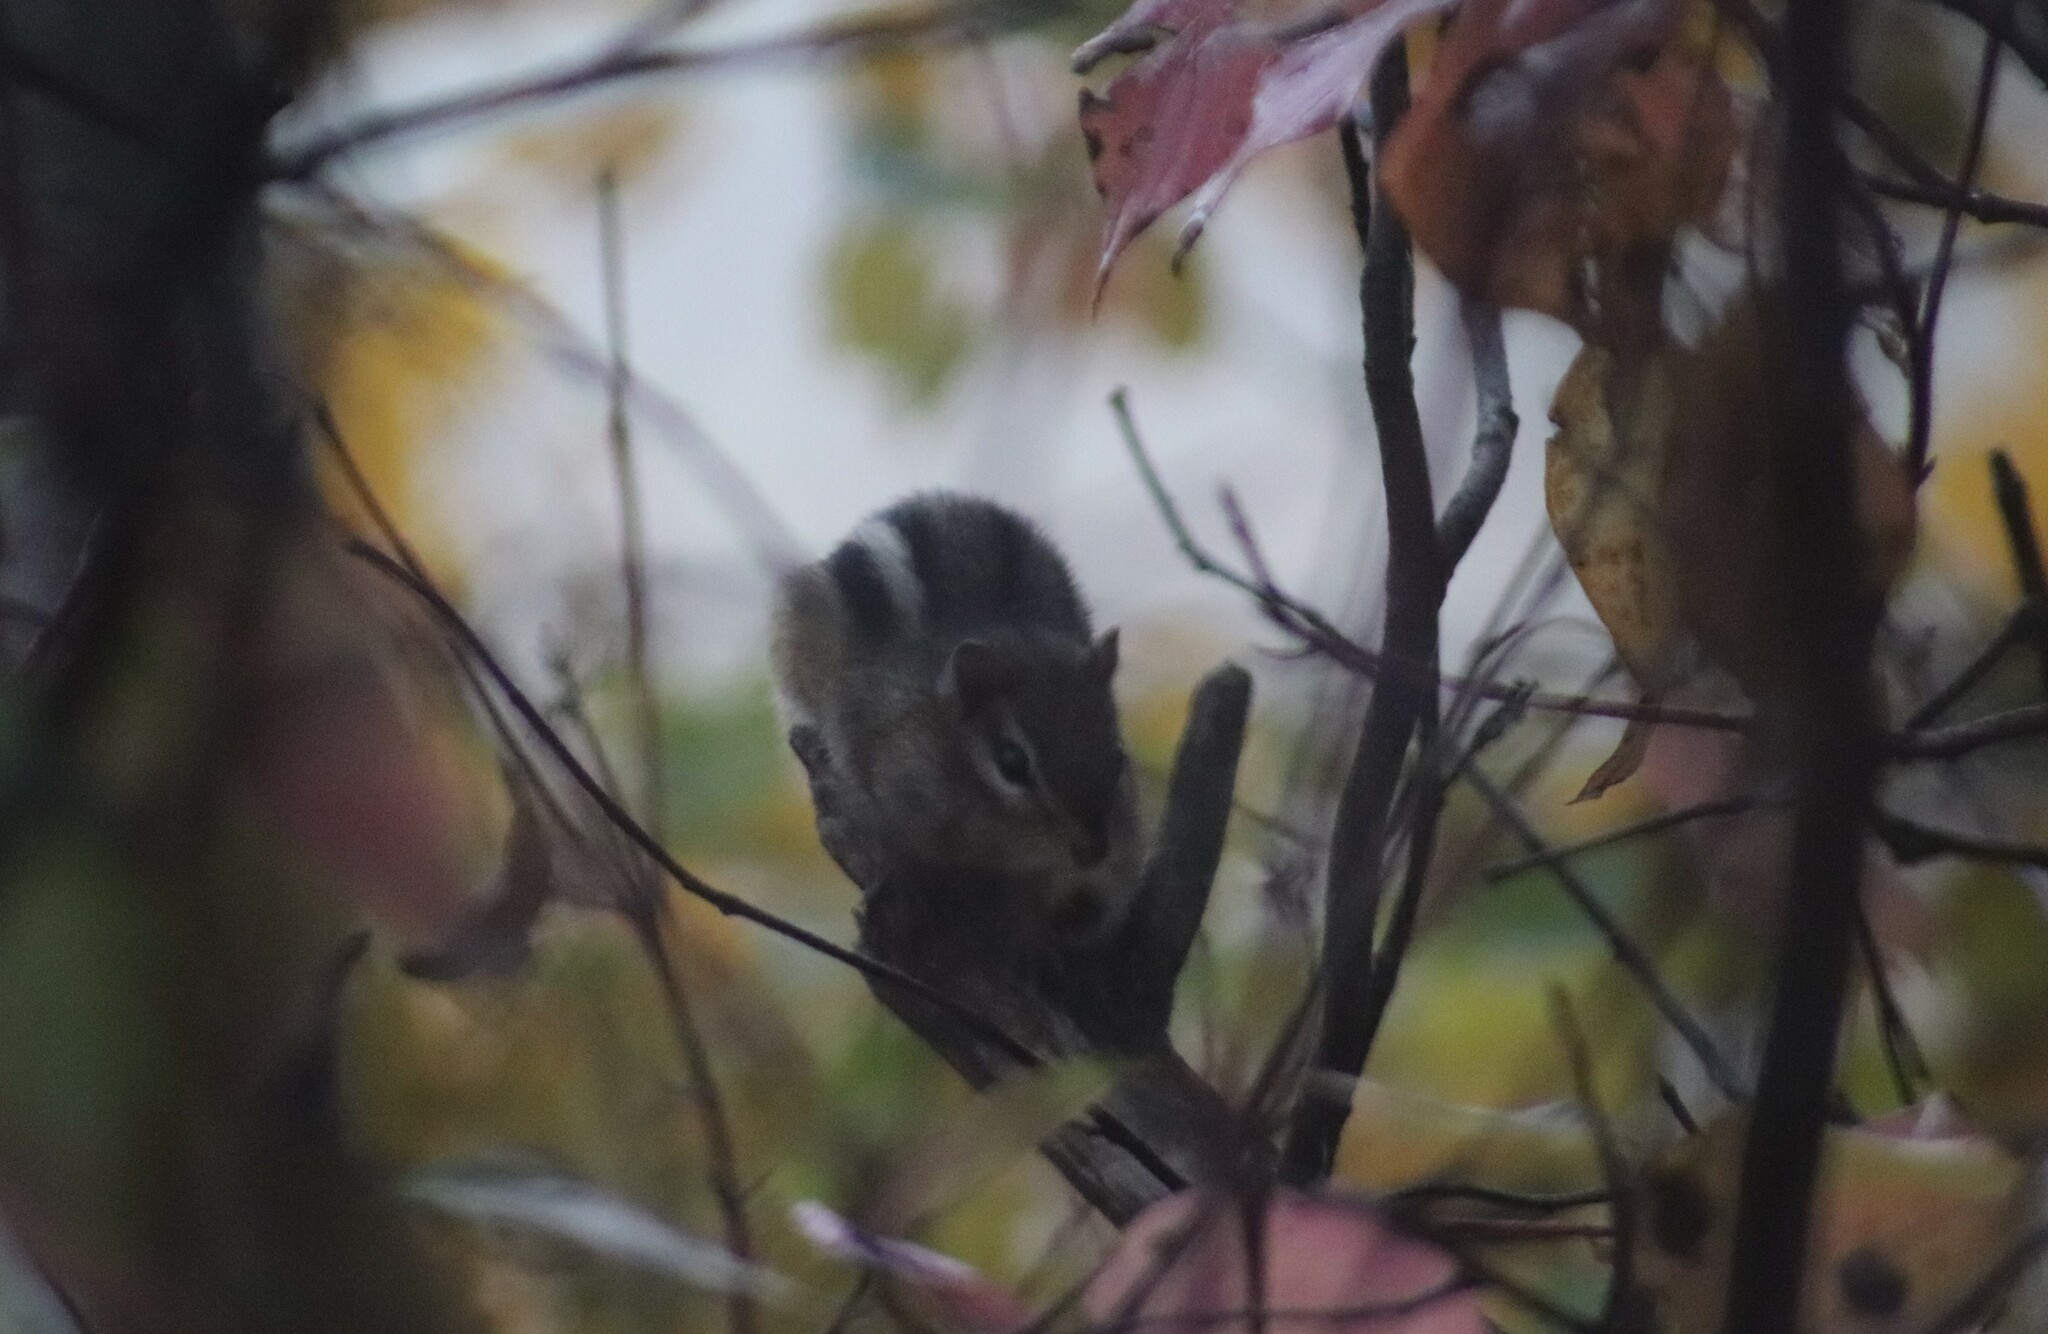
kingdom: Animalia
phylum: Chordata
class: Mammalia
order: Rodentia
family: Sciuridae
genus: Tamias
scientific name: Tamias striatus
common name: Eastern chipmunk
